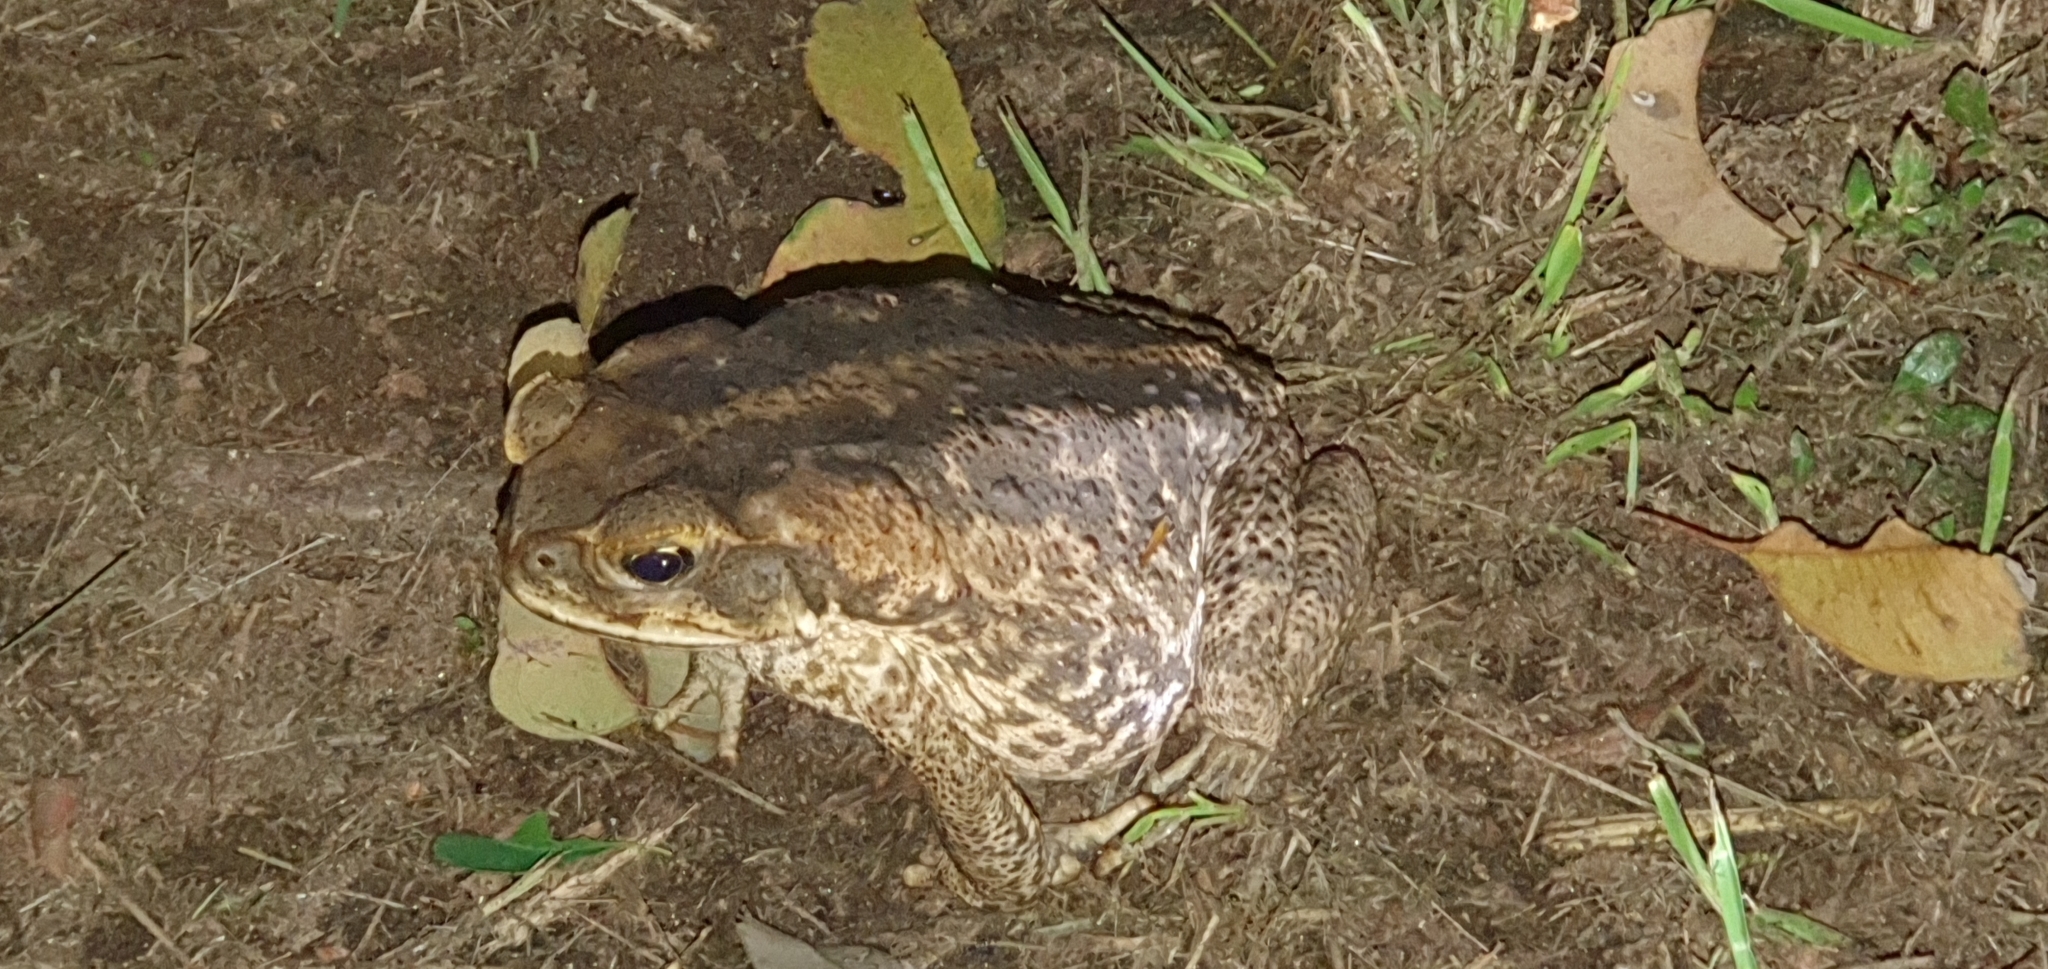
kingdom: Animalia
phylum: Chordata
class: Amphibia
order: Anura
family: Bufonidae
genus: Rhinella
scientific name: Rhinella marina
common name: Cane toad
